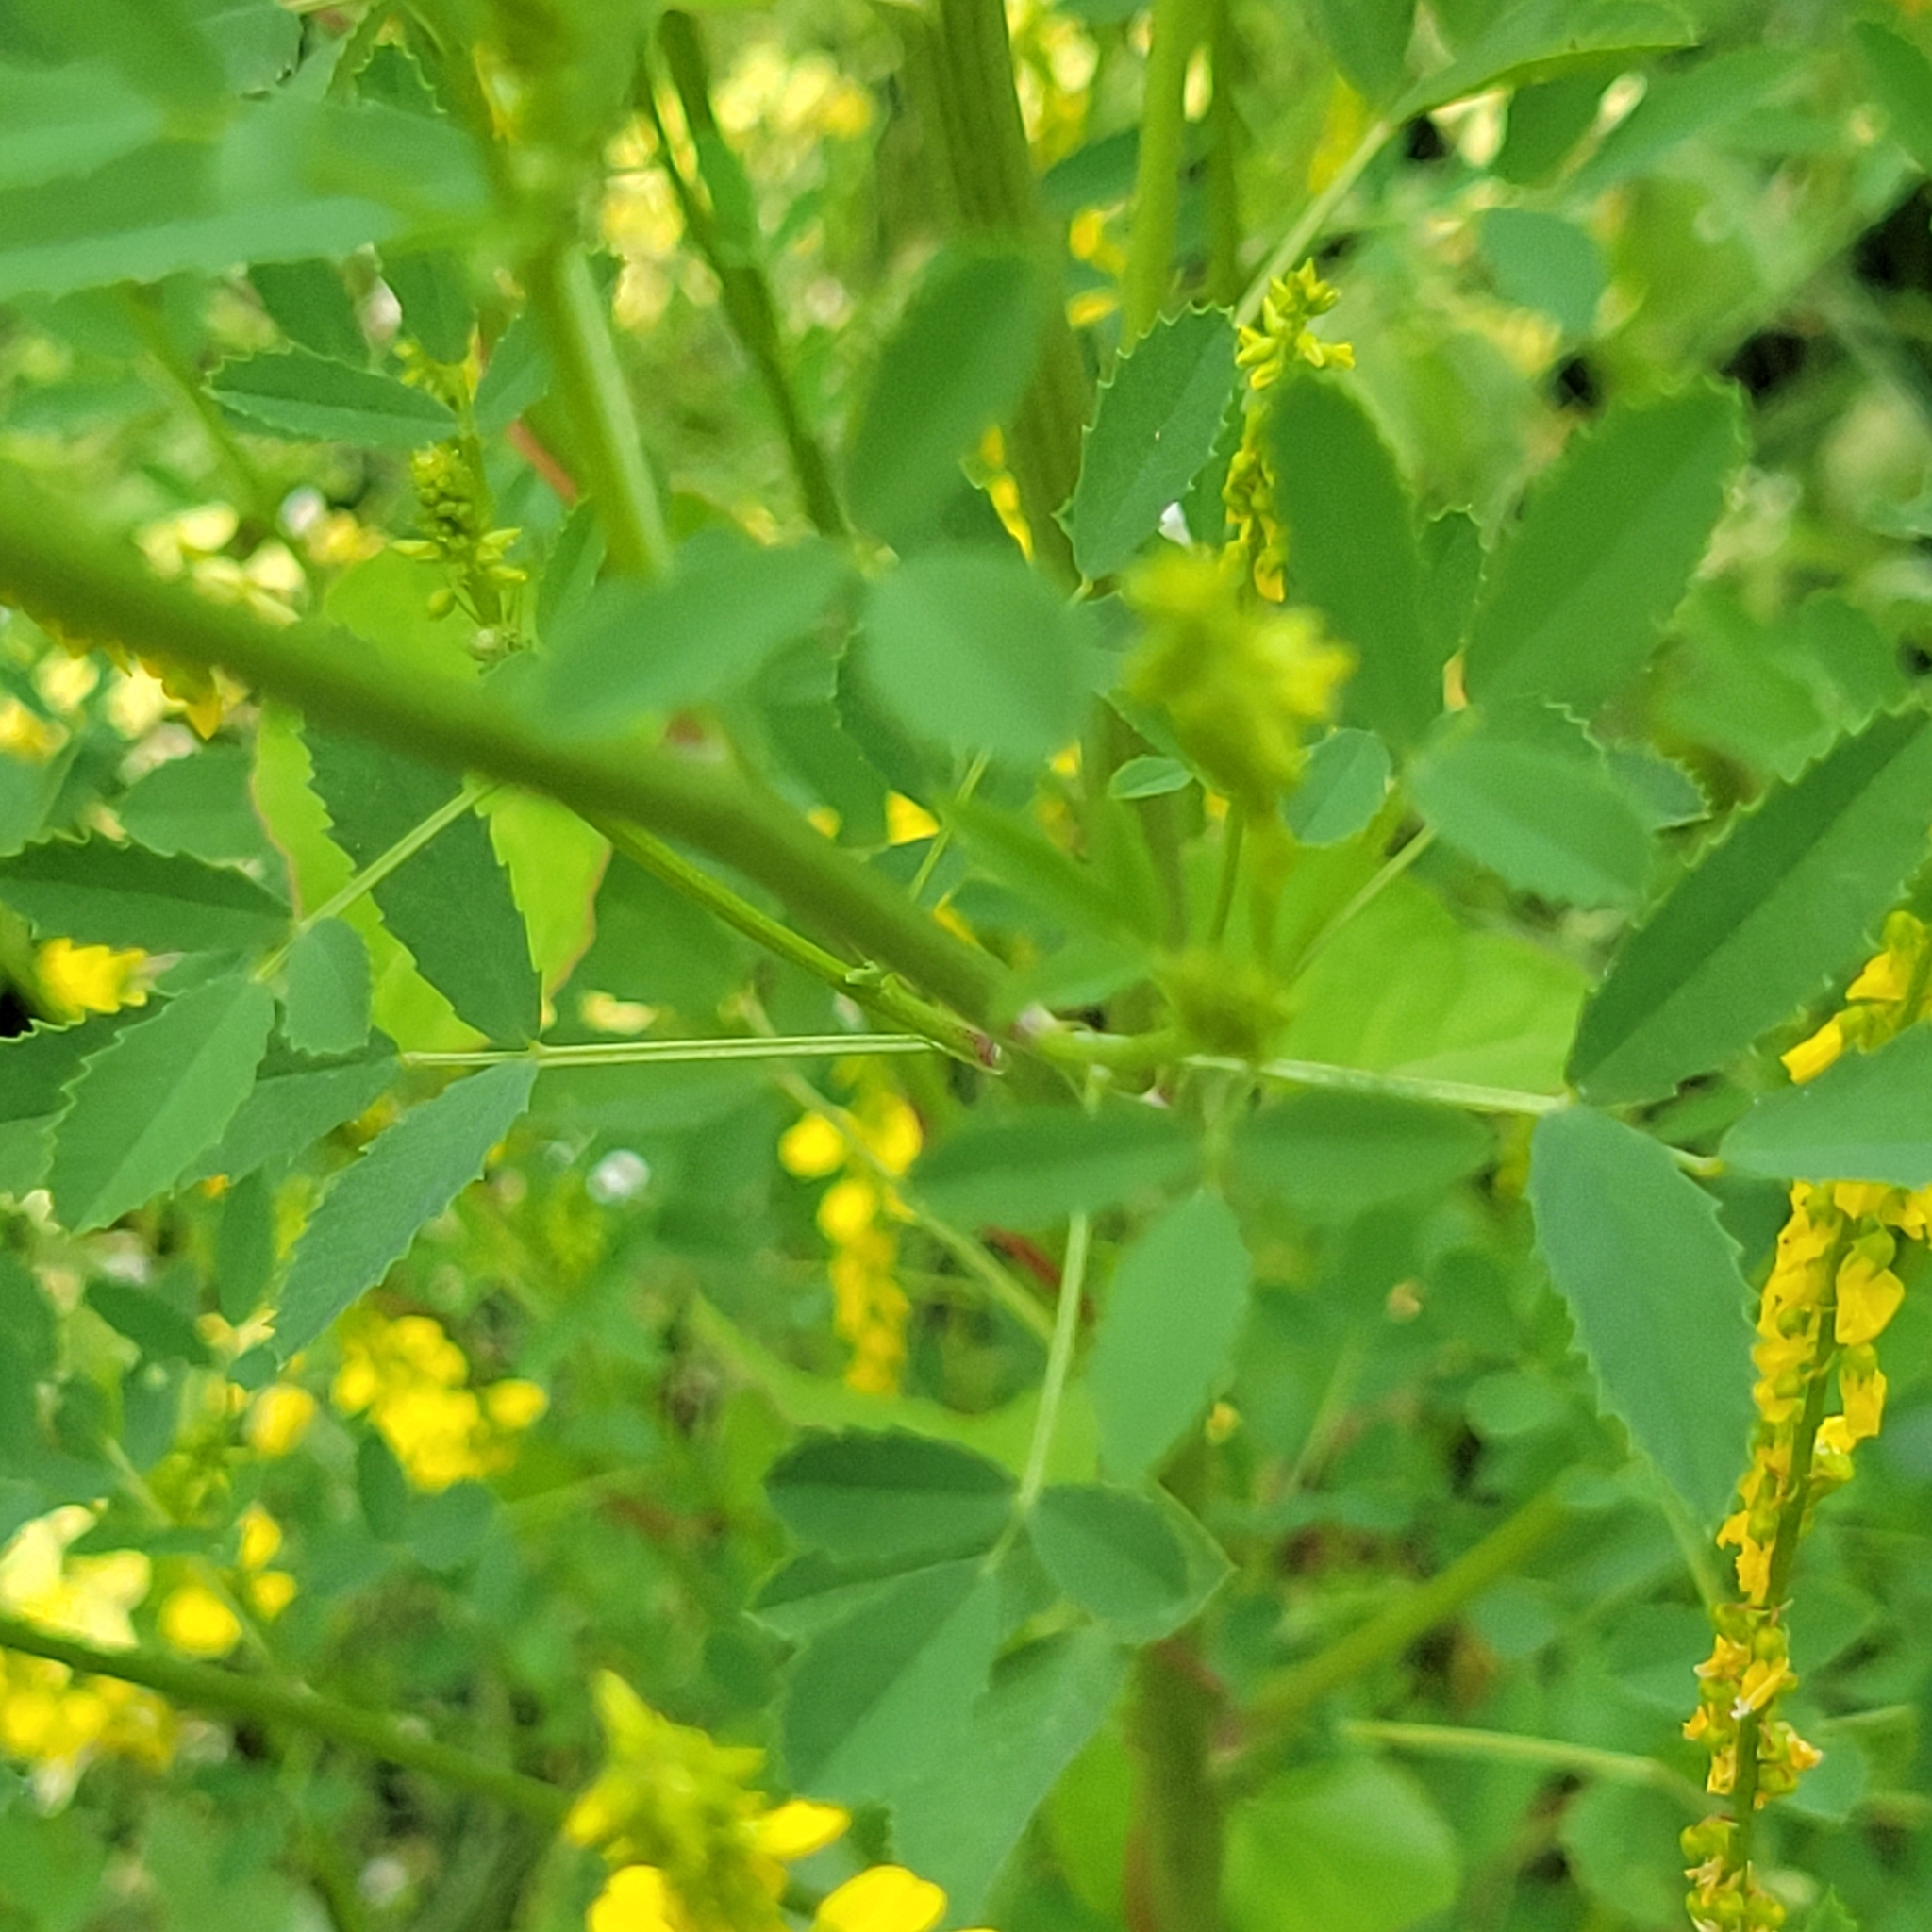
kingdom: Plantae
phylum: Tracheophyta
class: Magnoliopsida
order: Fabales
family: Fabaceae
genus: Melilotus
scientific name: Melilotus officinalis
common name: Sweetclover
